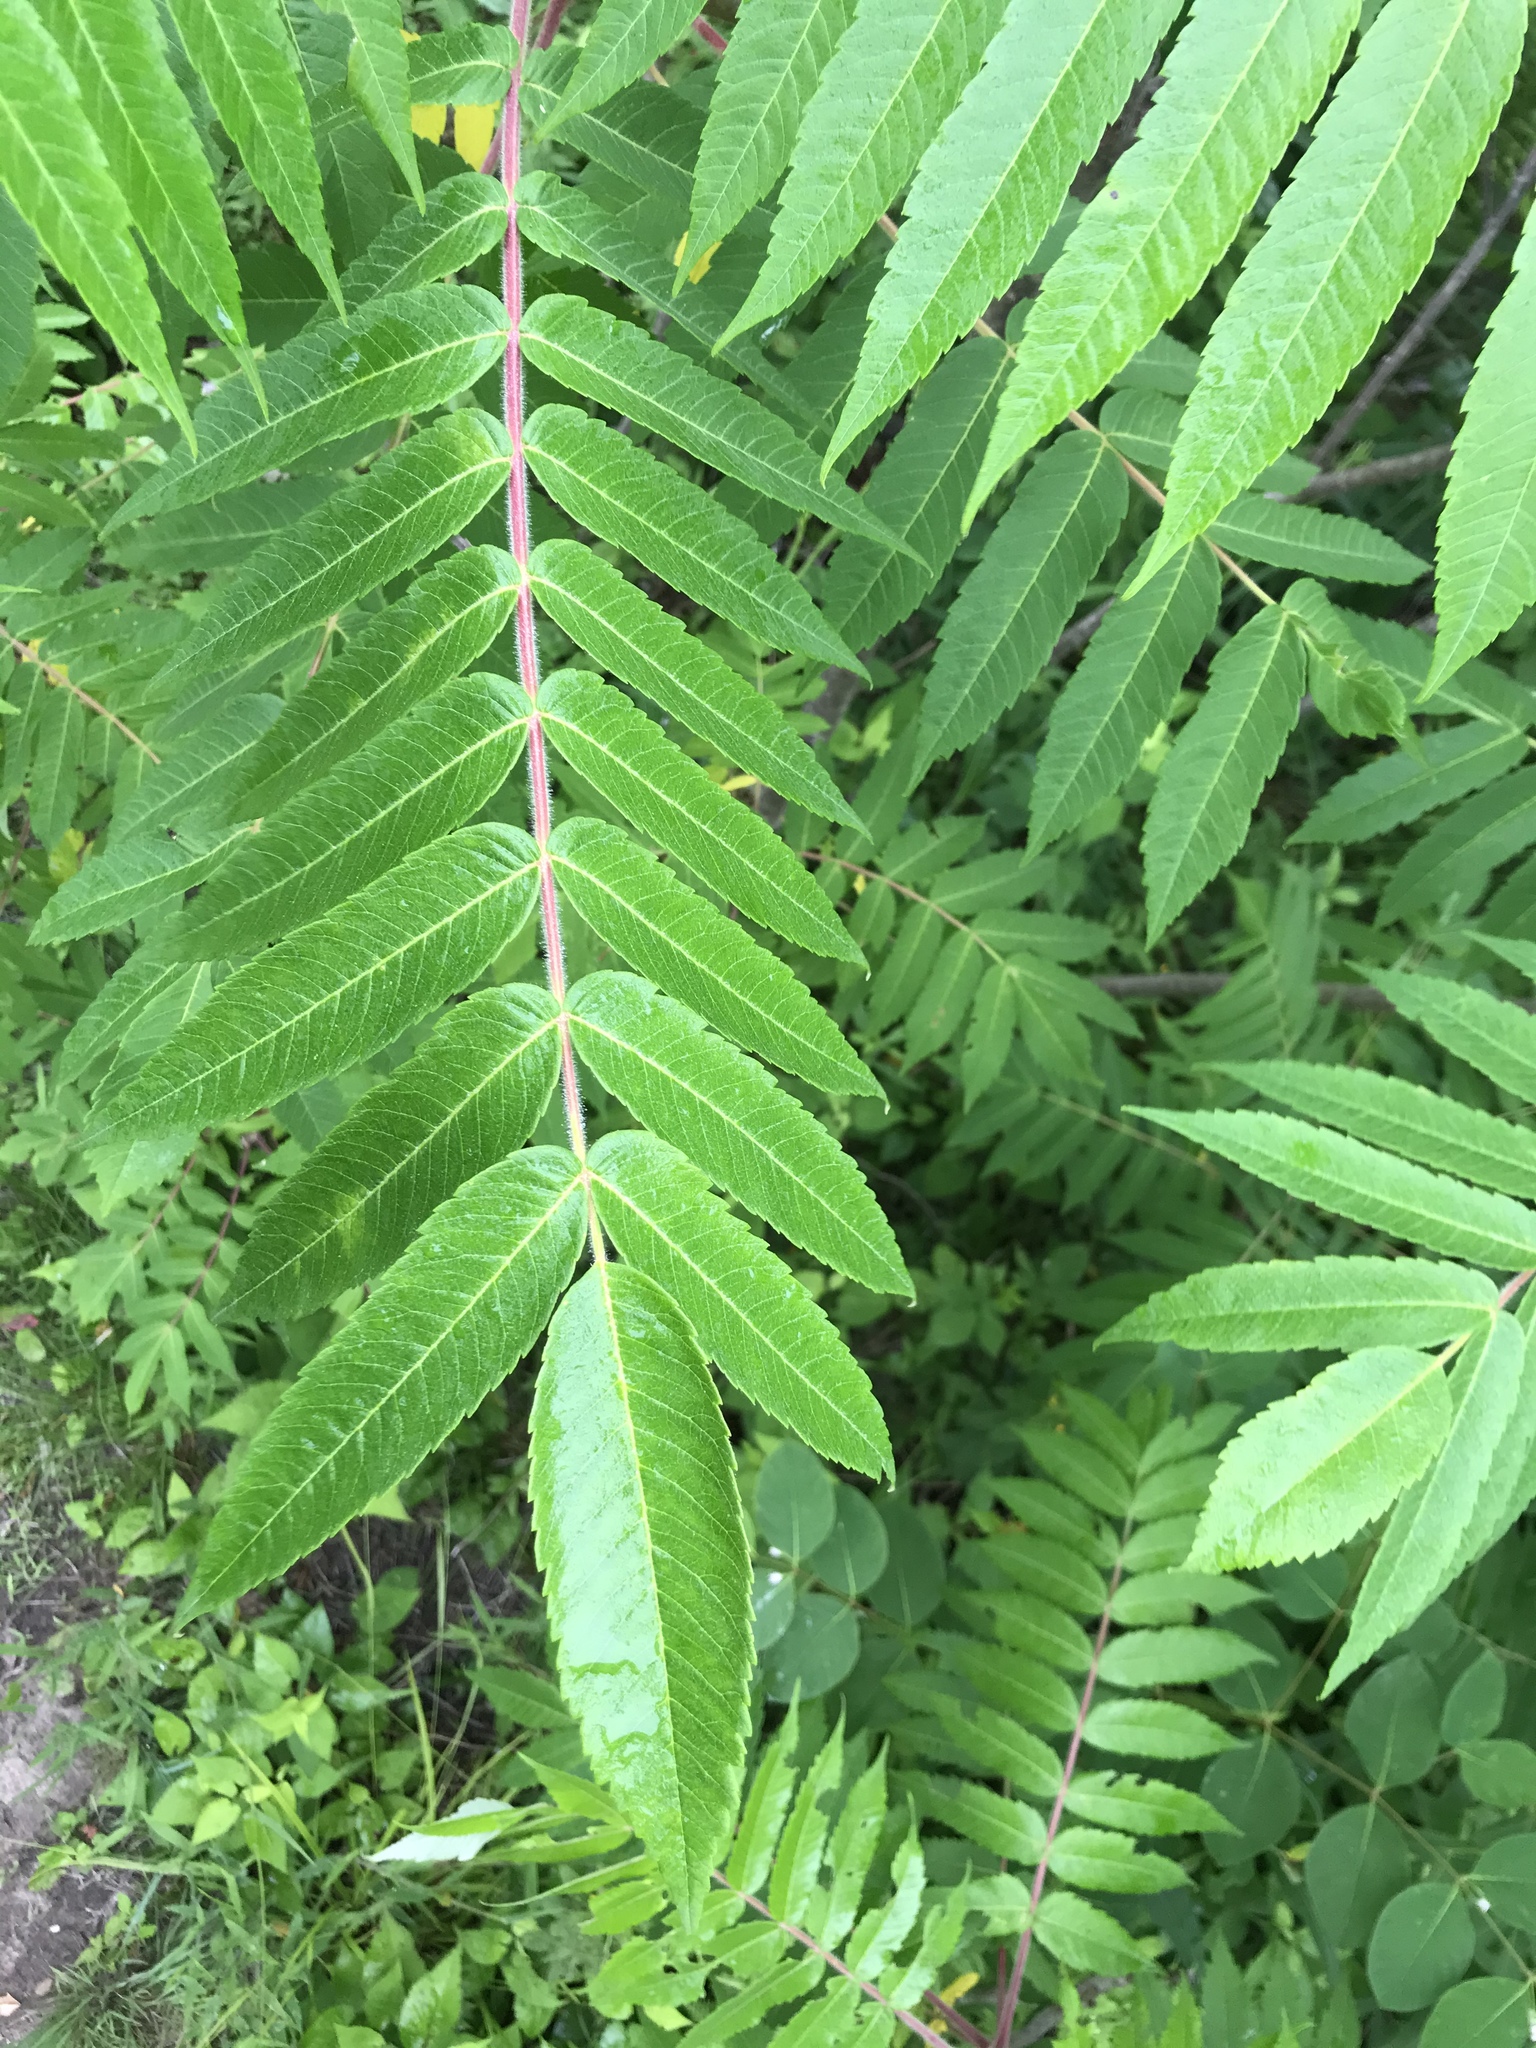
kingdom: Plantae
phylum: Tracheophyta
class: Magnoliopsida
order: Sapindales
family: Anacardiaceae
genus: Rhus
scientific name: Rhus typhina
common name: Staghorn sumac
